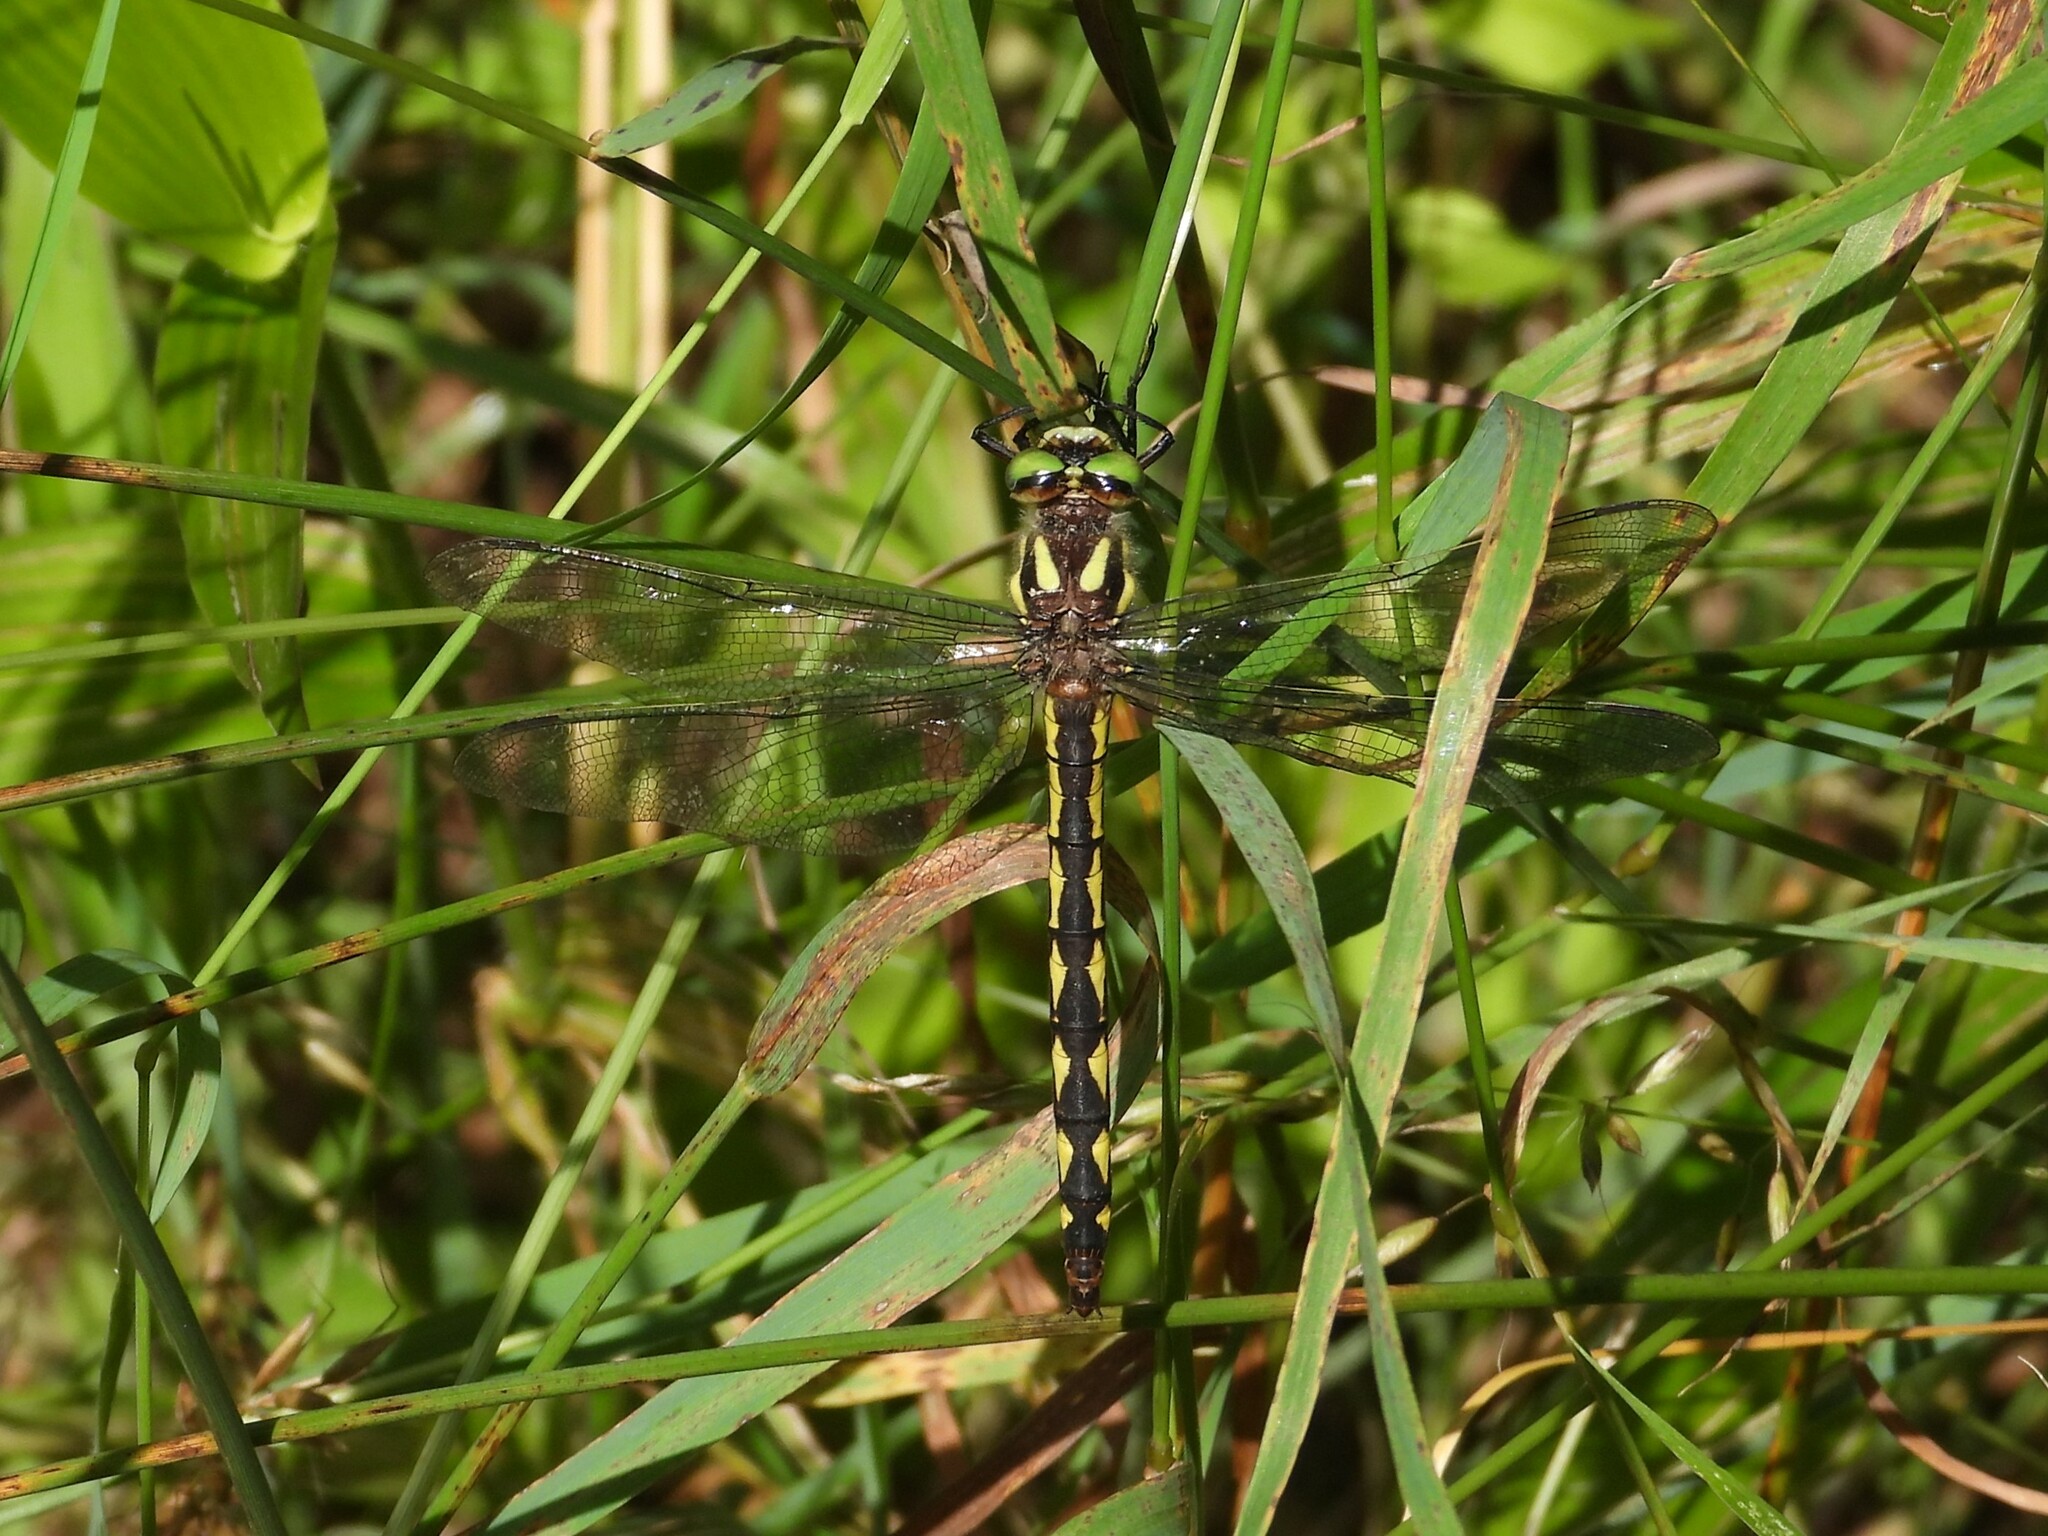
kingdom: Animalia
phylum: Arthropoda
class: Insecta
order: Odonata
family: Cordulegastridae
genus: Cordulegaster
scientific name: Cordulegaster diastatops
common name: Delta-spotted spiketail
